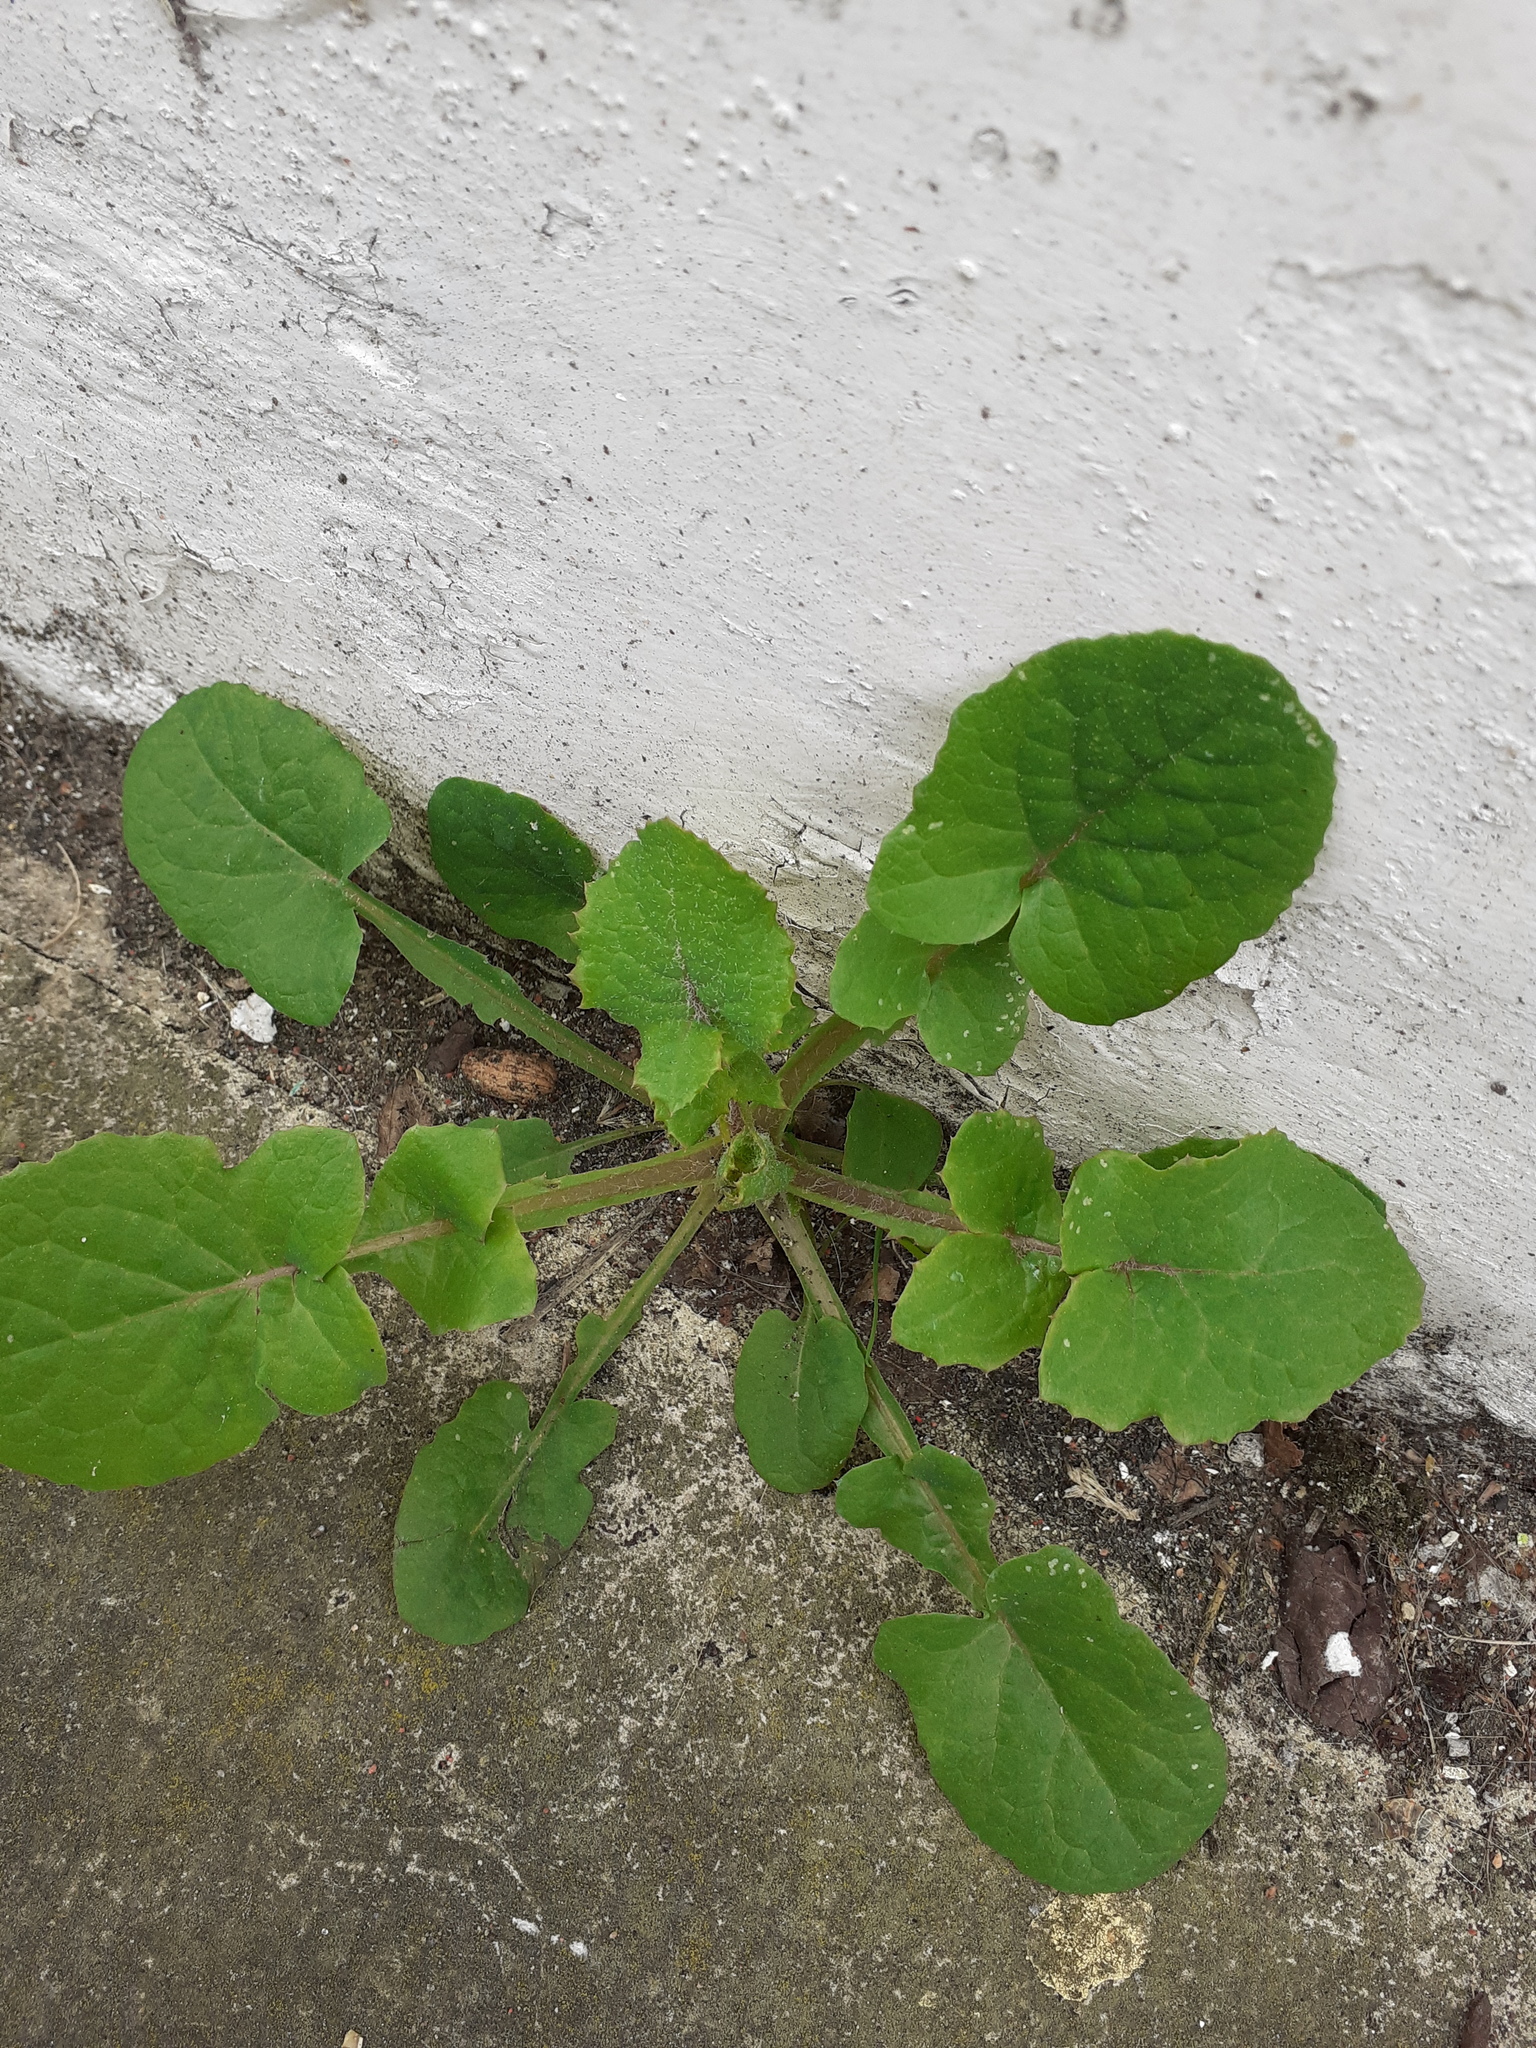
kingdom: Plantae
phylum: Tracheophyta
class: Magnoliopsida
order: Asterales
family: Asteraceae
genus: Sonchus
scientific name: Sonchus oleraceus
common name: Common sowthistle
